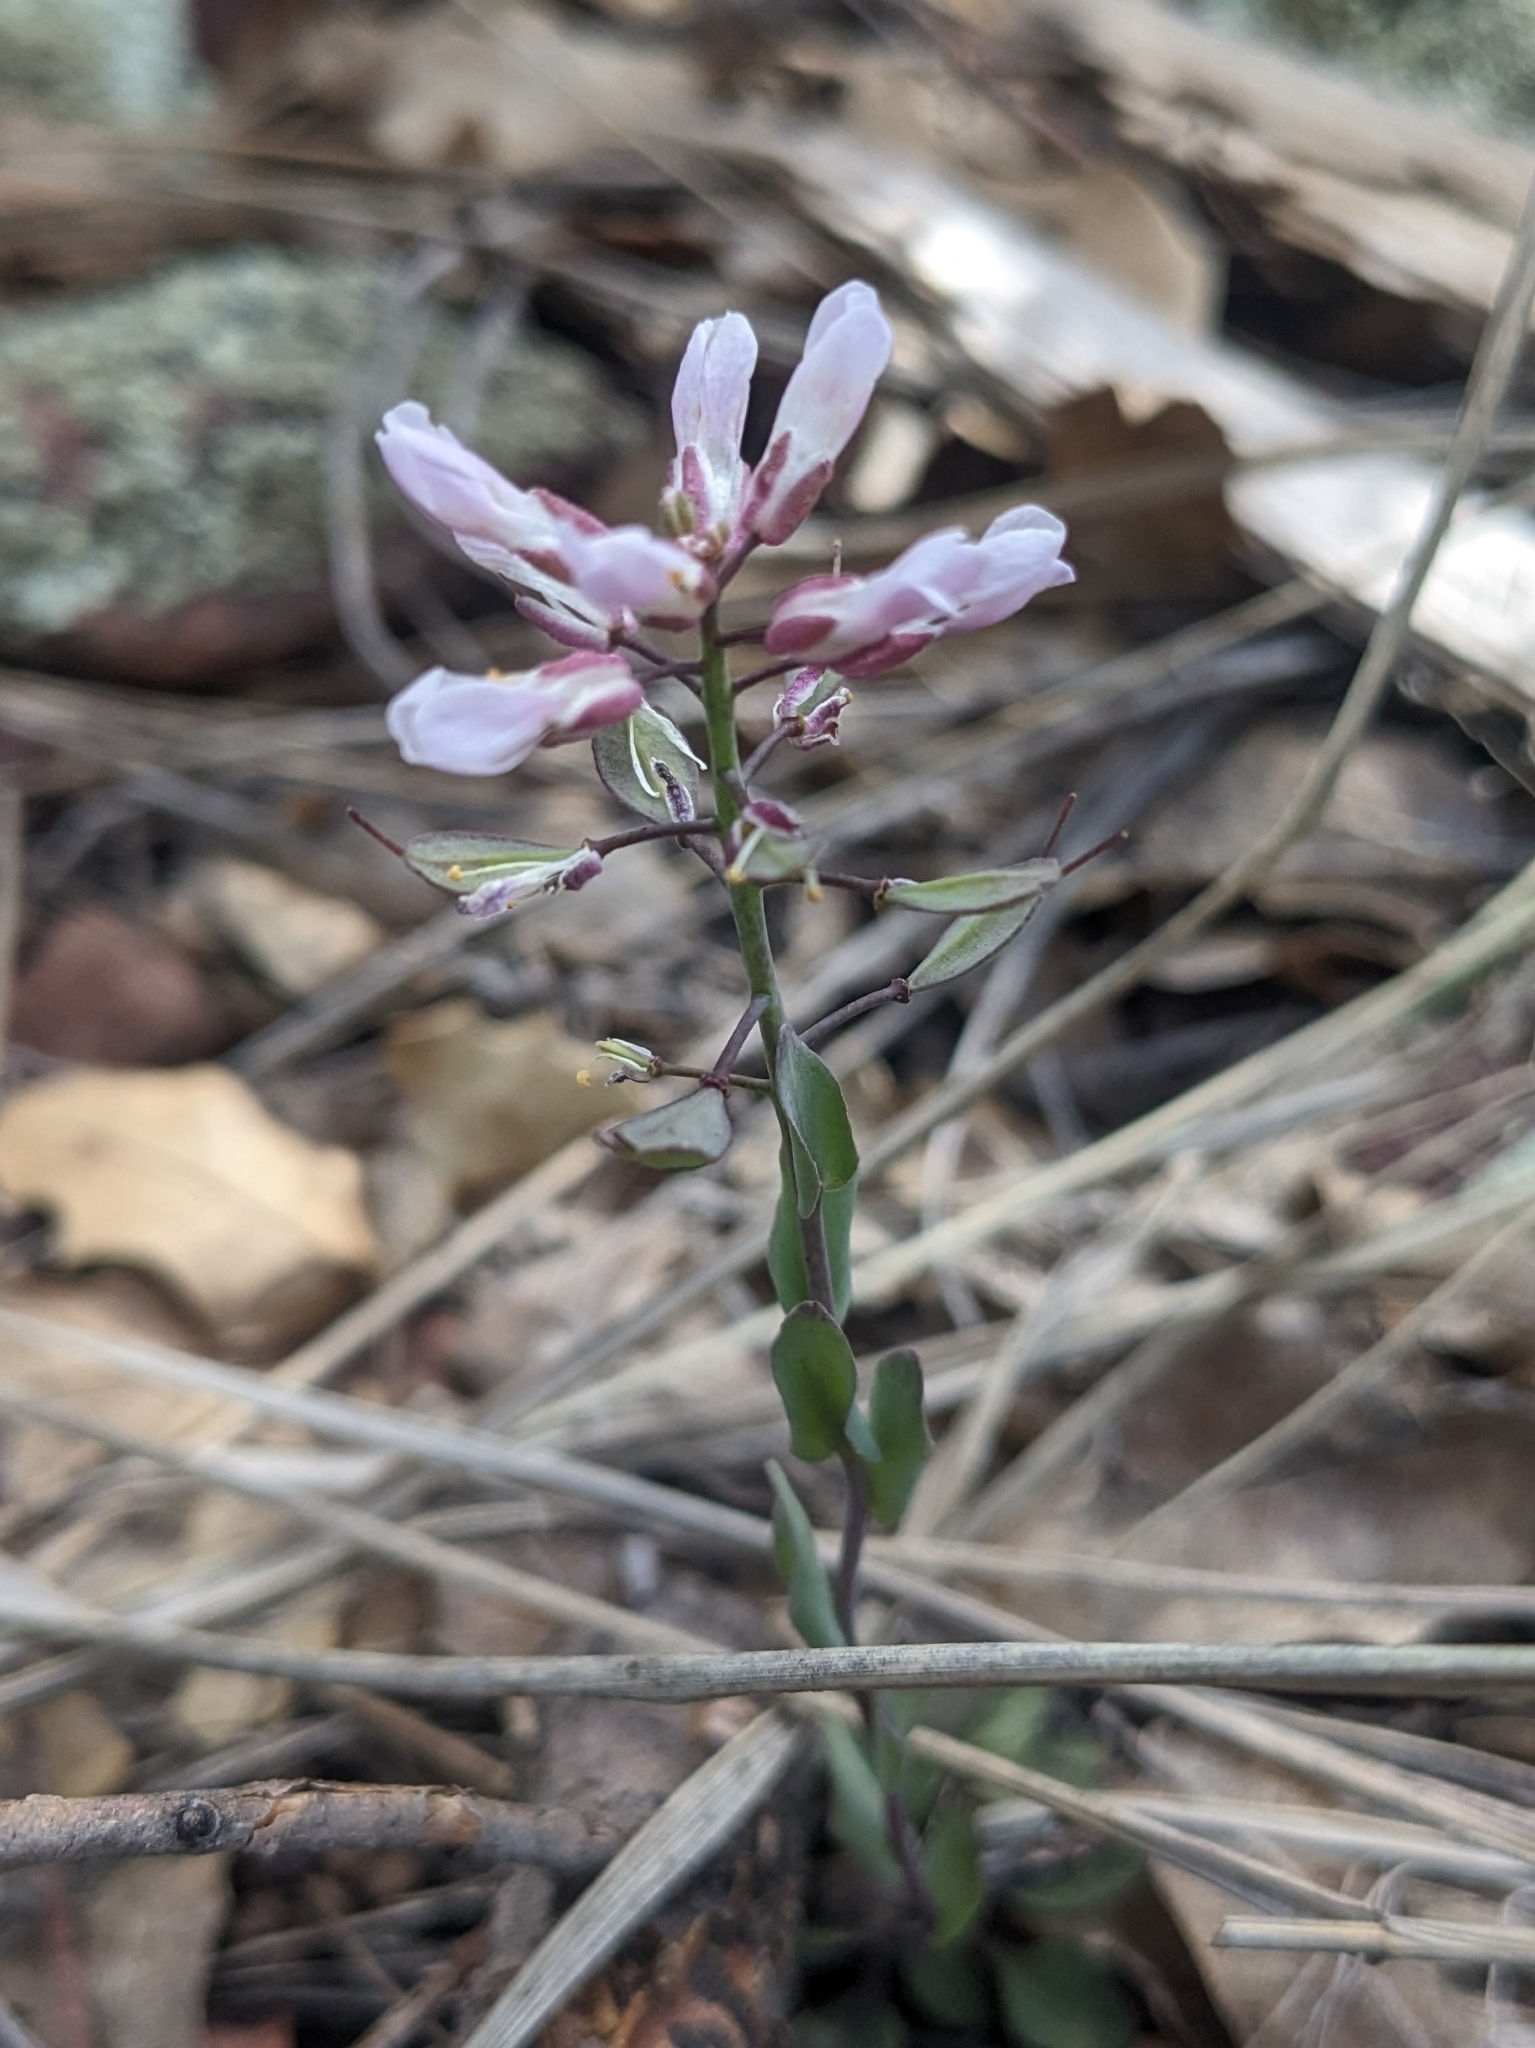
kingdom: Plantae
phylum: Tracheophyta
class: Magnoliopsida
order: Brassicales
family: Brassicaceae
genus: Noccaea
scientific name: Noccaea fendleri
